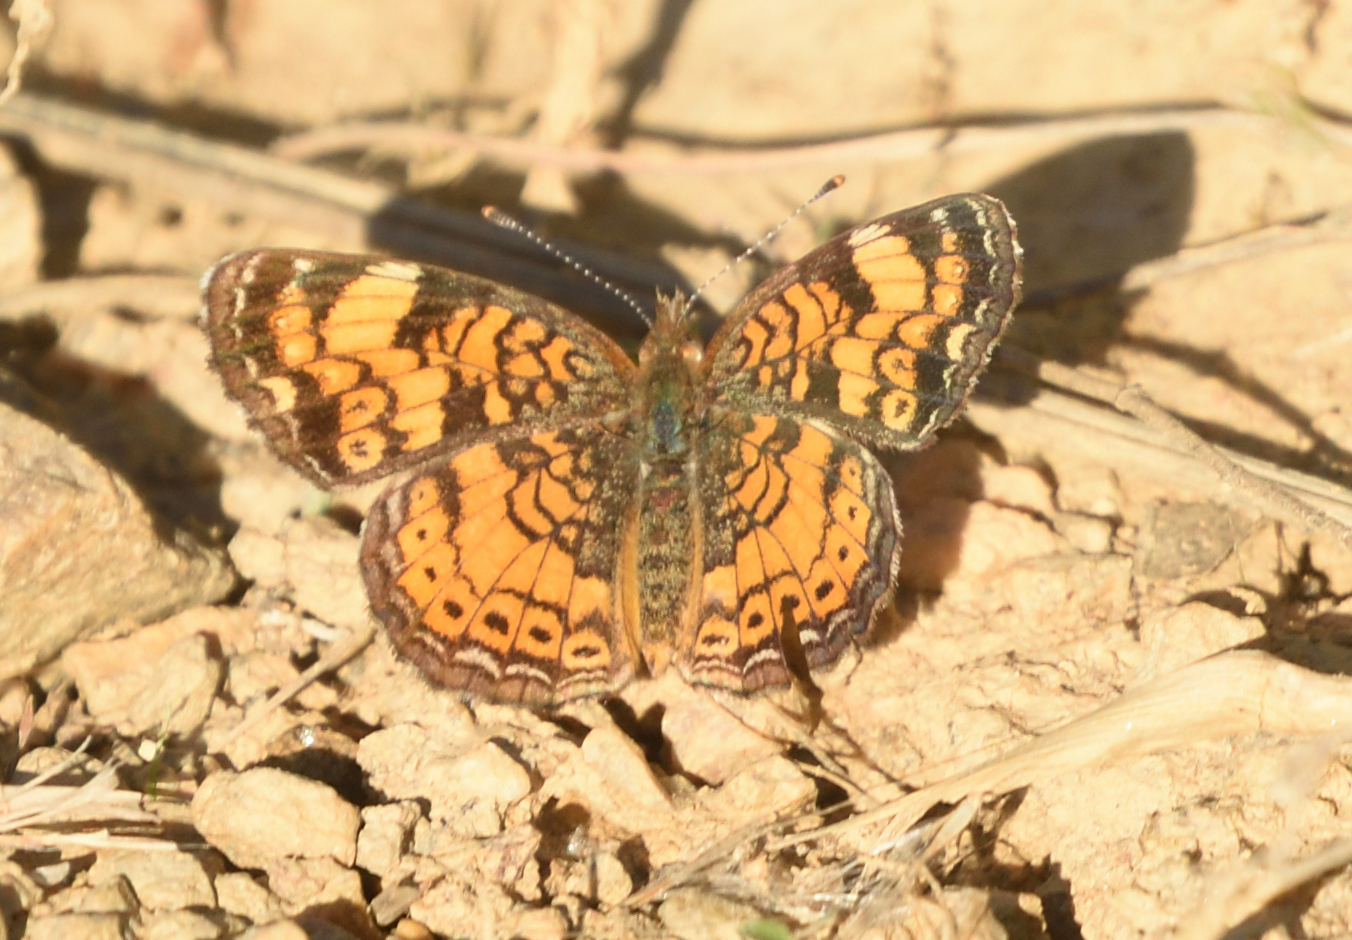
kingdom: Animalia
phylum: Arthropoda
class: Insecta
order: Lepidoptera
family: Nymphalidae
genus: Phyciodes
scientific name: Phyciodes tharos
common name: Pearl crescent
